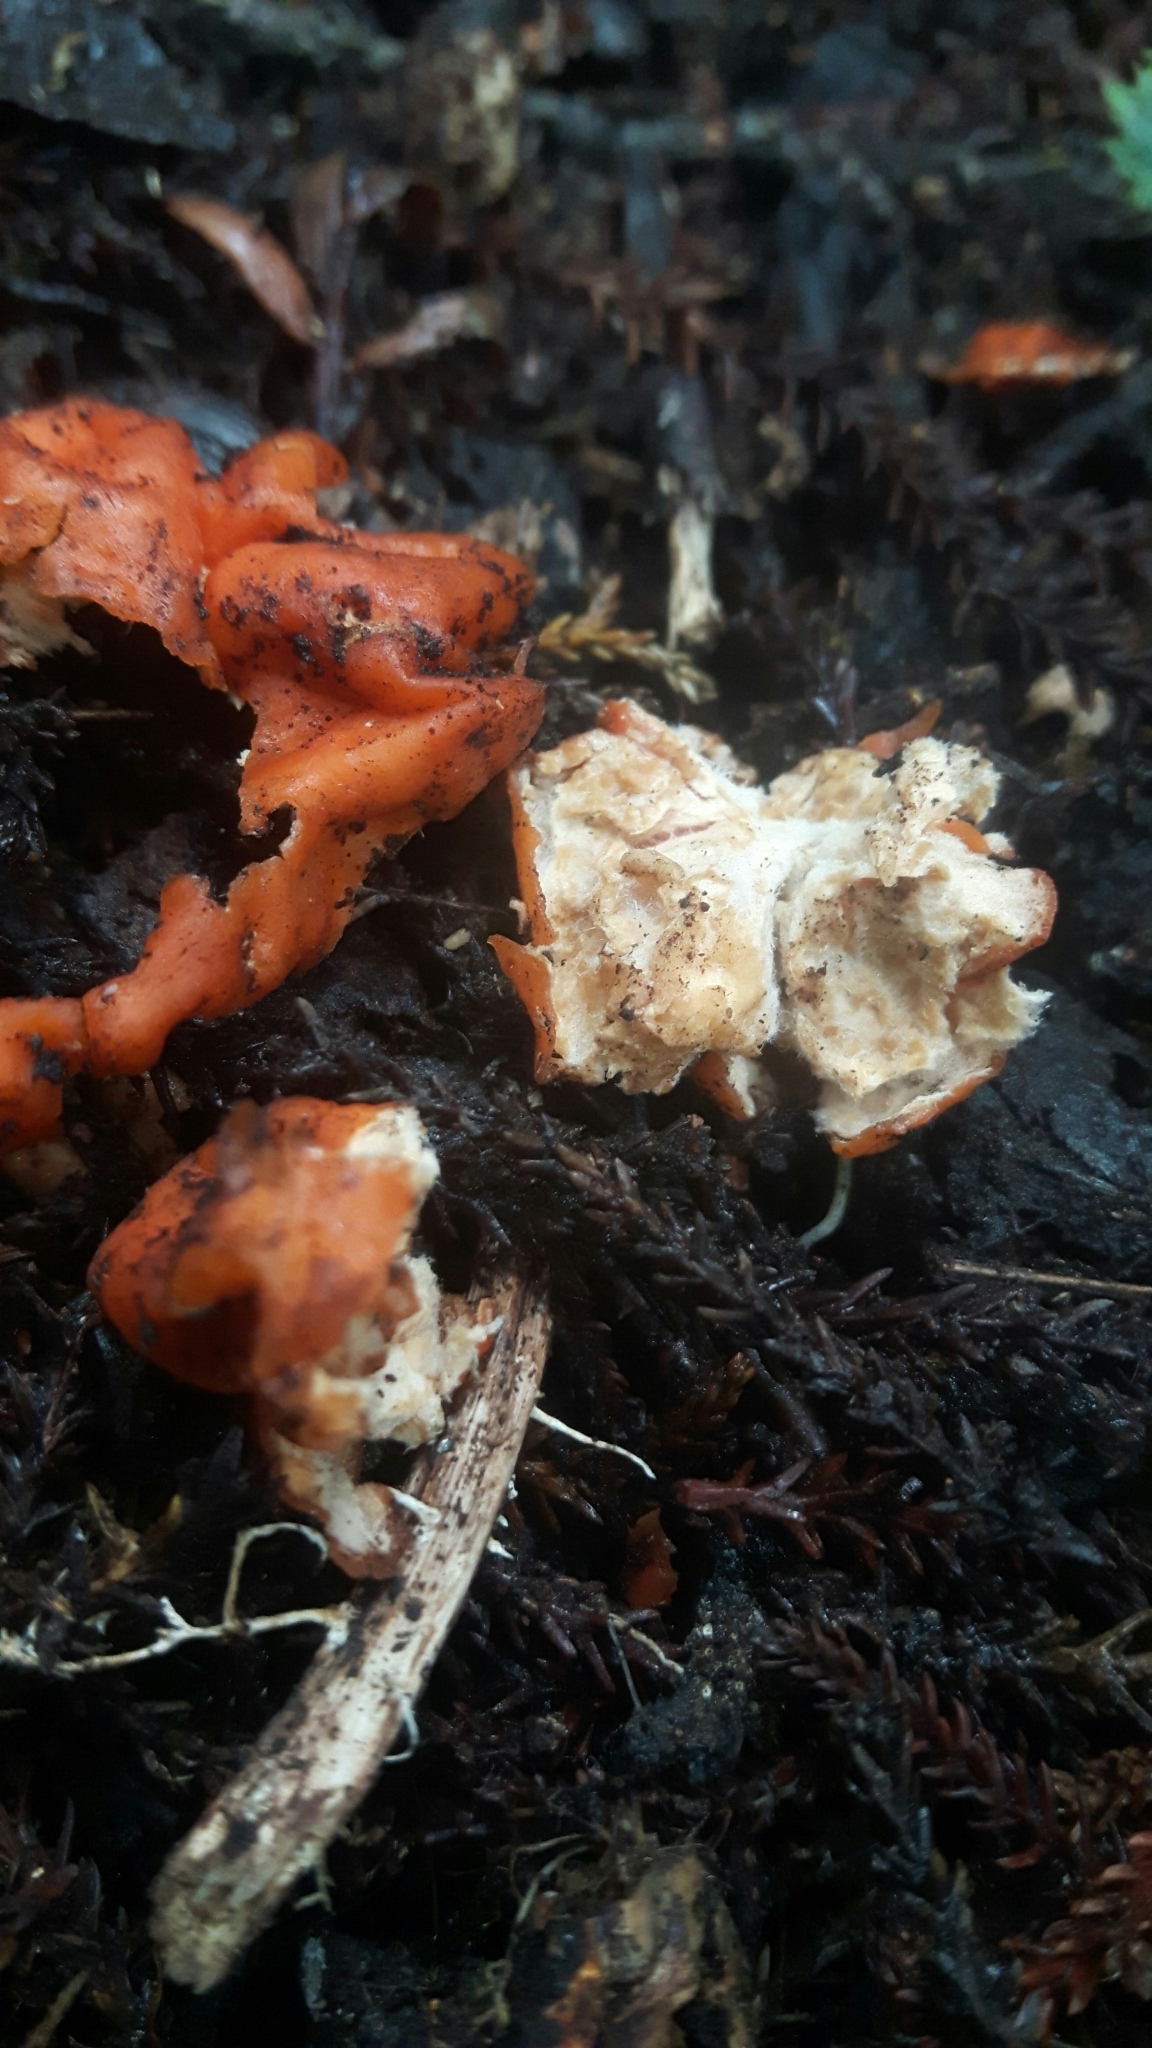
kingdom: Fungi
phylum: Ascomycota
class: Pezizomycetes
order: Pezizales
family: Pyronemataceae
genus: Paurocotylis
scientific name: Paurocotylis pila
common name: Scarlet berry truffle
